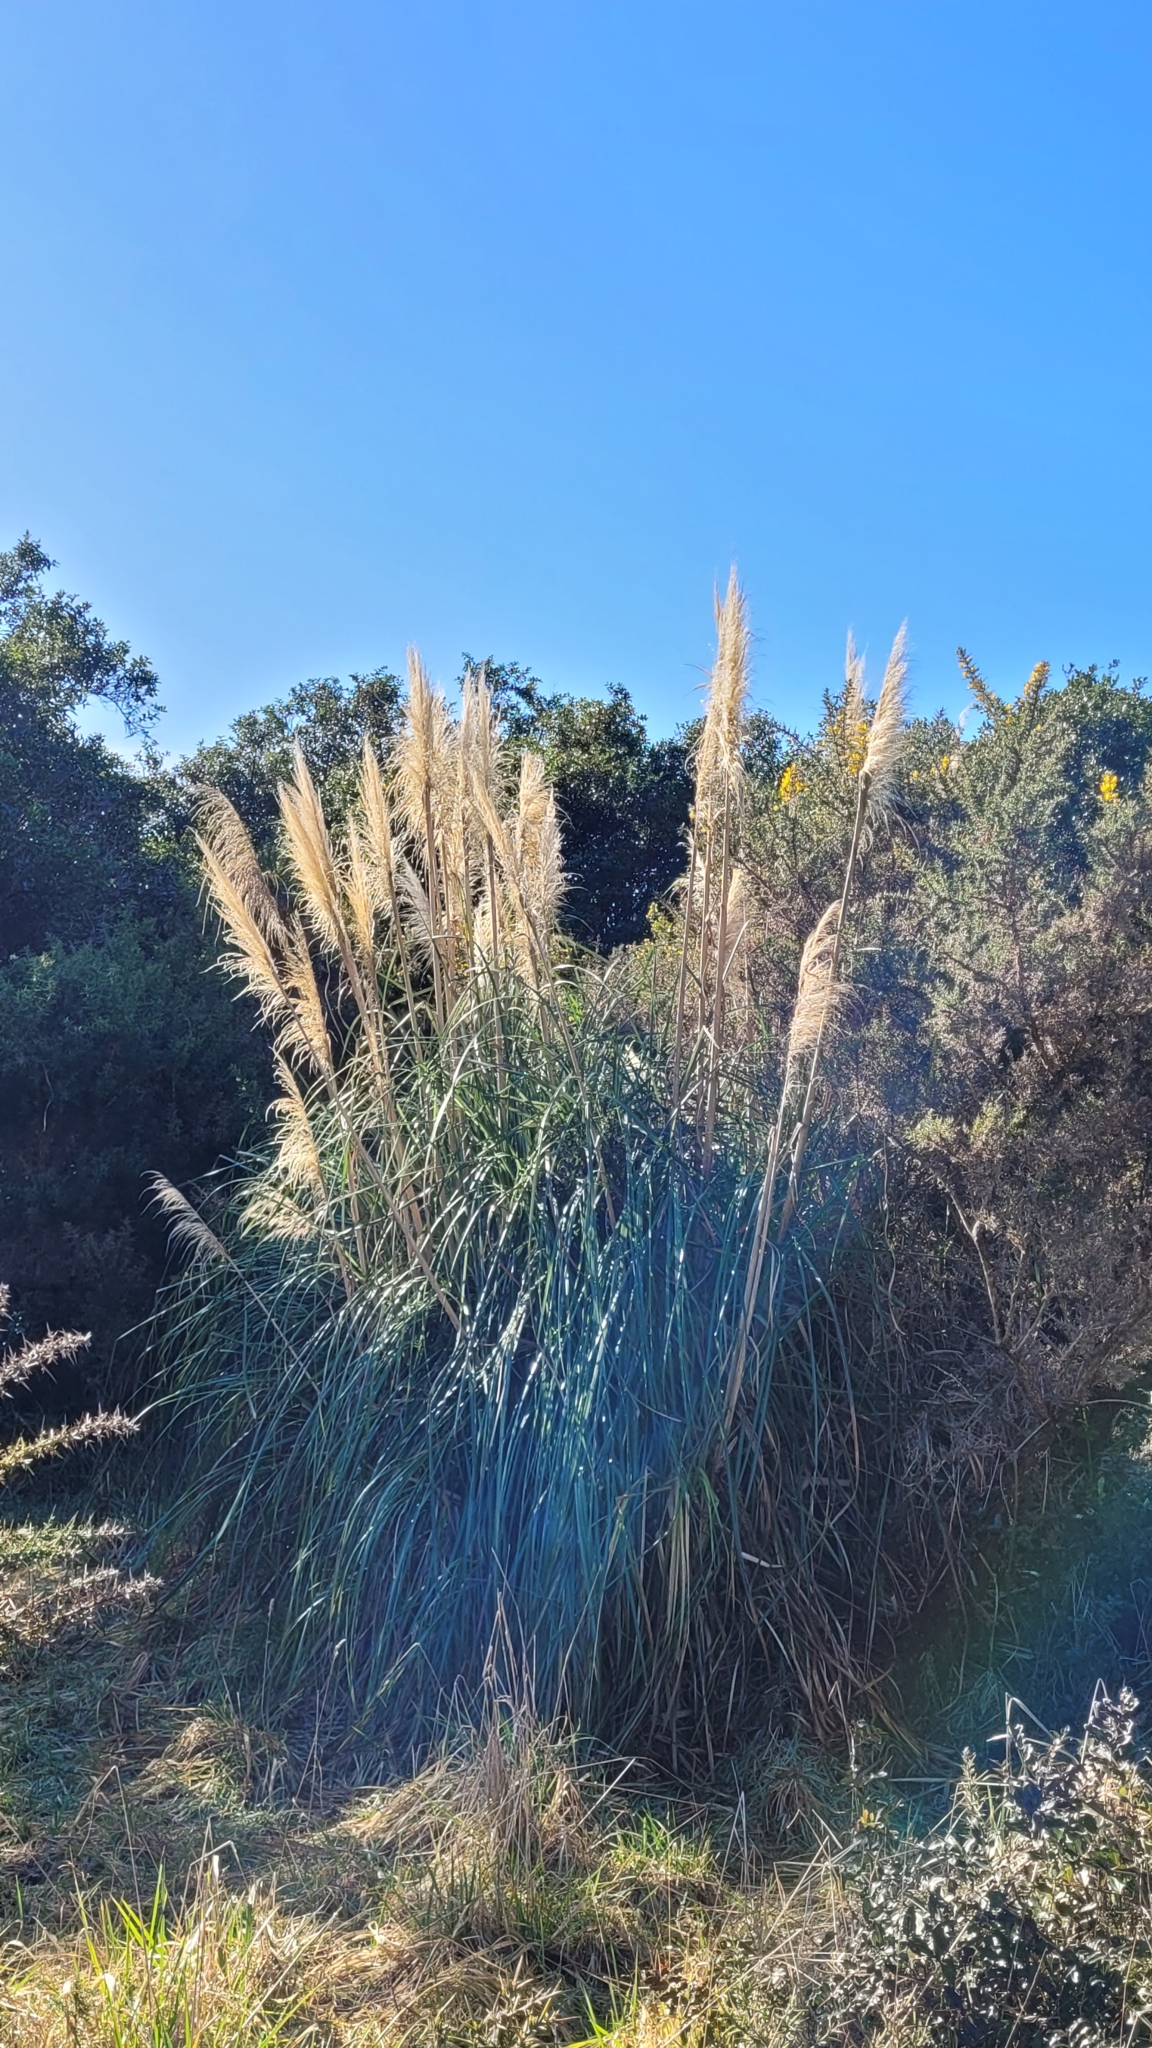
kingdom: Plantae
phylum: Tracheophyta
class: Liliopsida
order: Poales
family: Poaceae
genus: Cortaderia
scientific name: Cortaderia jubata
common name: Purple pampas grass
